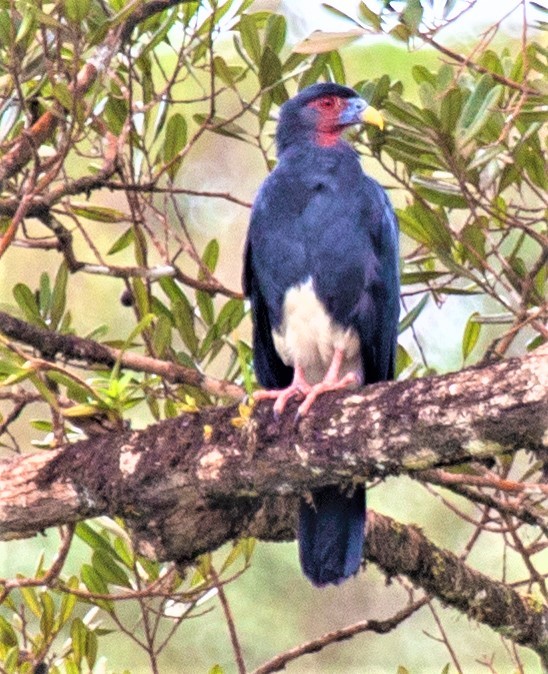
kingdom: Animalia
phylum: Chordata
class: Aves
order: Falconiformes
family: Falconidae
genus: Ibycter
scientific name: Ibycter americanus
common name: Red-throated caracara
